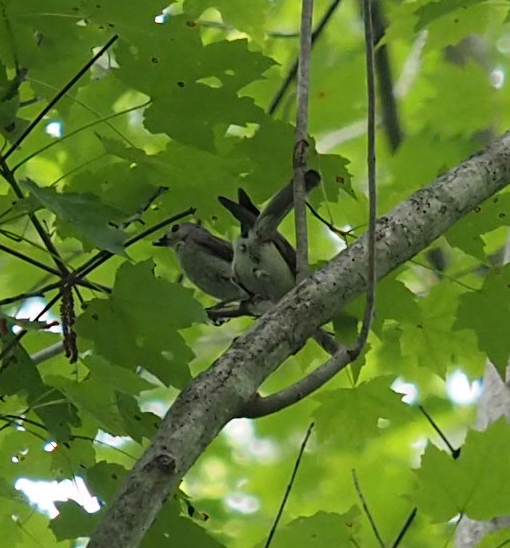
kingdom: Animalia
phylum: Chordata
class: Aves
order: Passeriformes
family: Paridae
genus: Baeolophus
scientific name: Baeolophus bicolor
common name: Tufted titmouse
